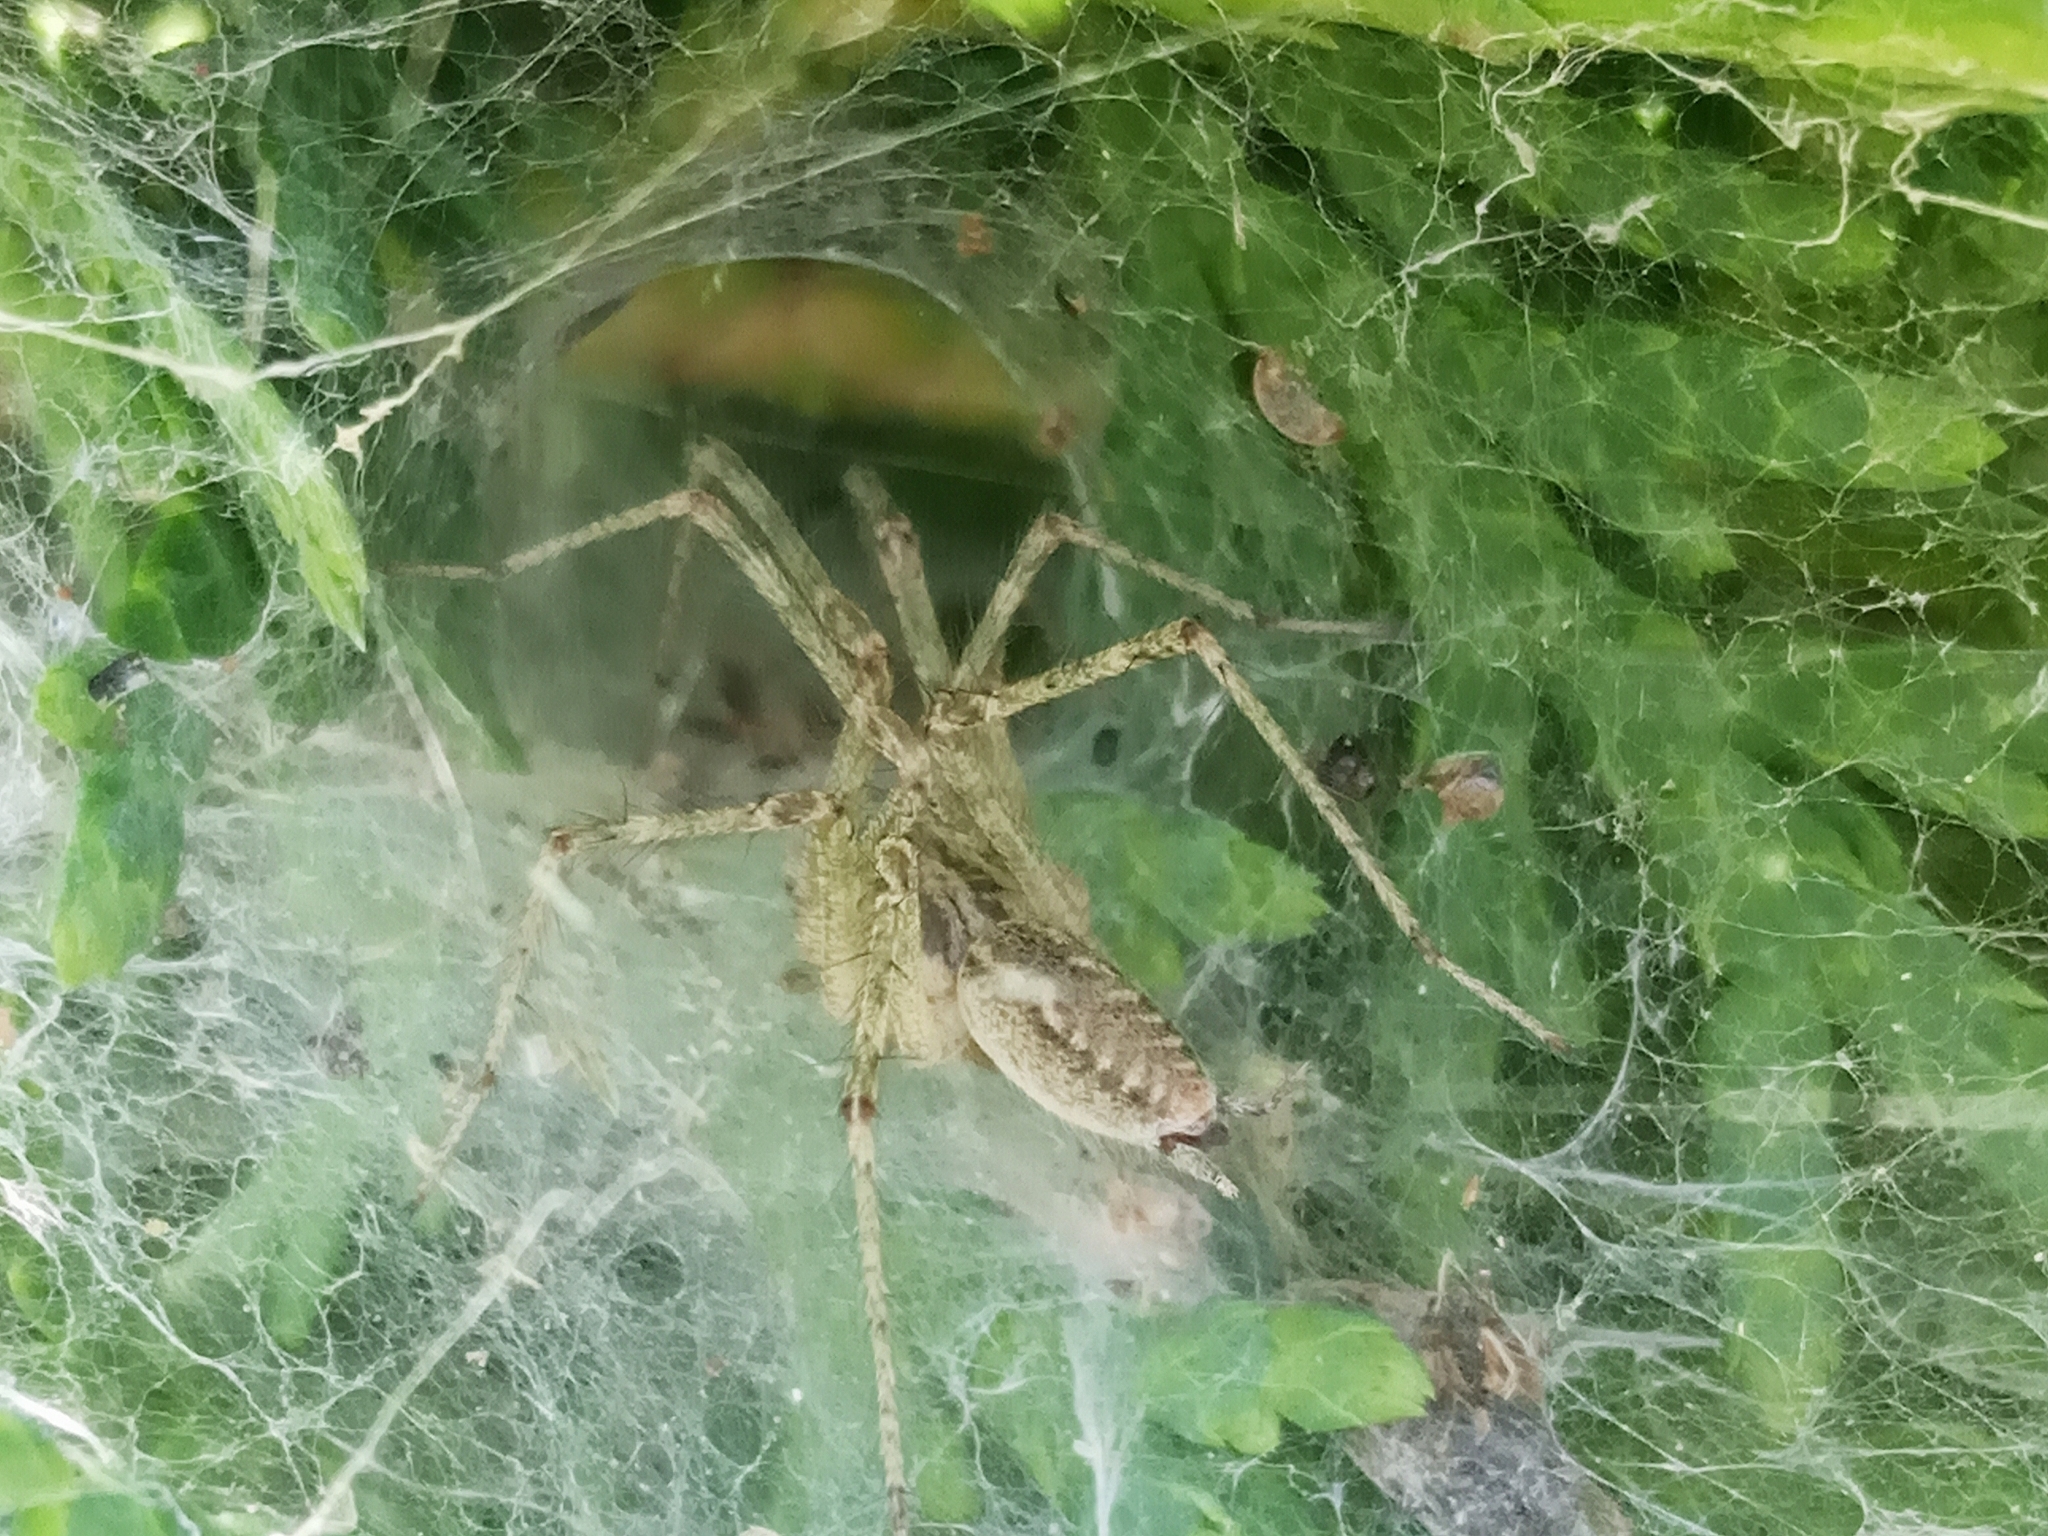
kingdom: Animalia
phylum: Arthropoda
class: Arachnida
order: Araneae
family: Agelenidae
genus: Allagelena
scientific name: Allagelena gracilens
